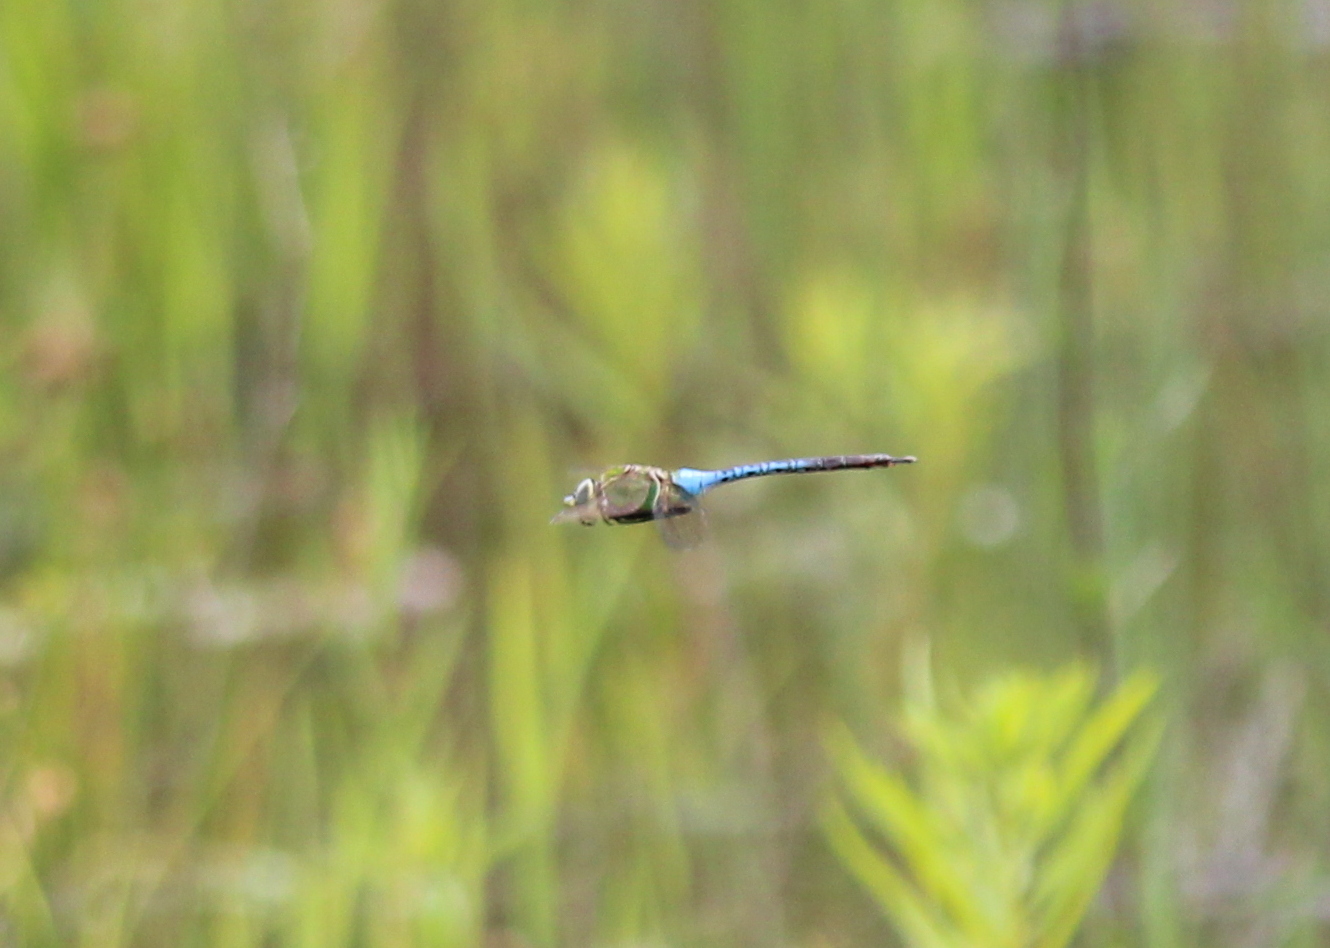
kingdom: Animalia
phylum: Arthropoda
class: Insecta
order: Odonata
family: Aeshnidae
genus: Anax
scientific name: Anax junius
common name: Common green darner
